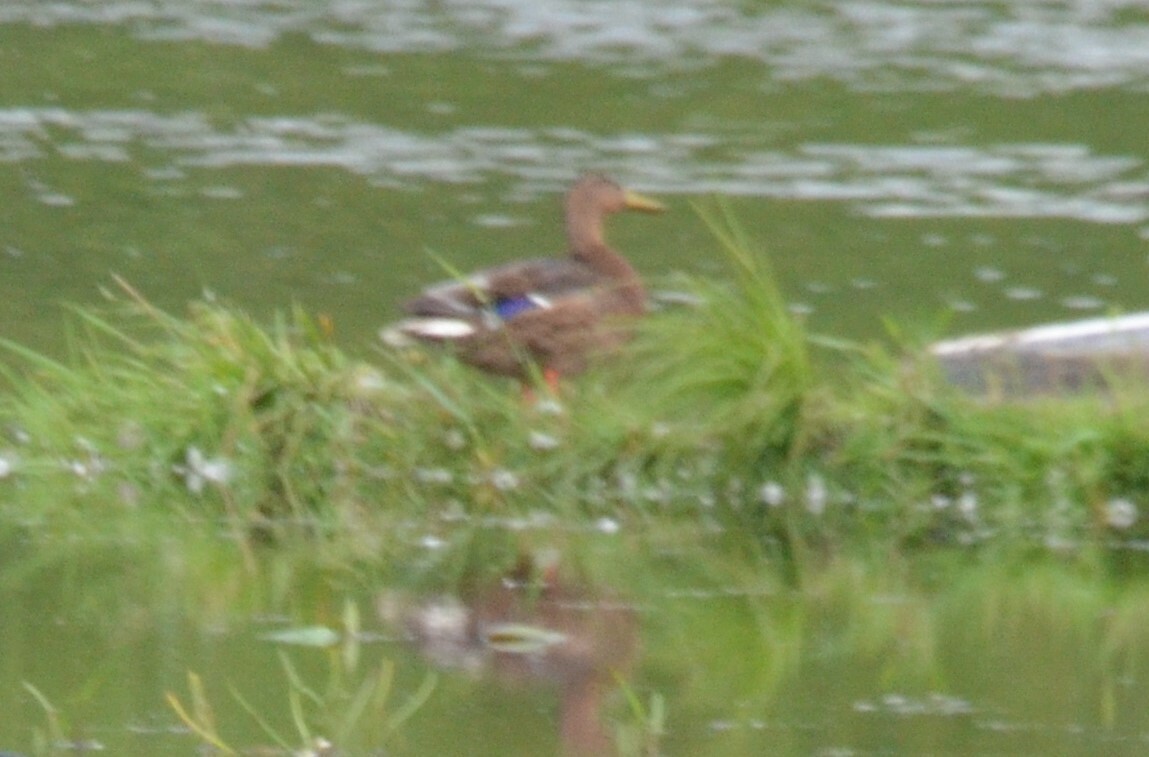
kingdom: Animalia
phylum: Chordata
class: Aves
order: Anseriformes
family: Anatidae
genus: Anas
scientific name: Anas platyrhynchos
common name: Mallard
